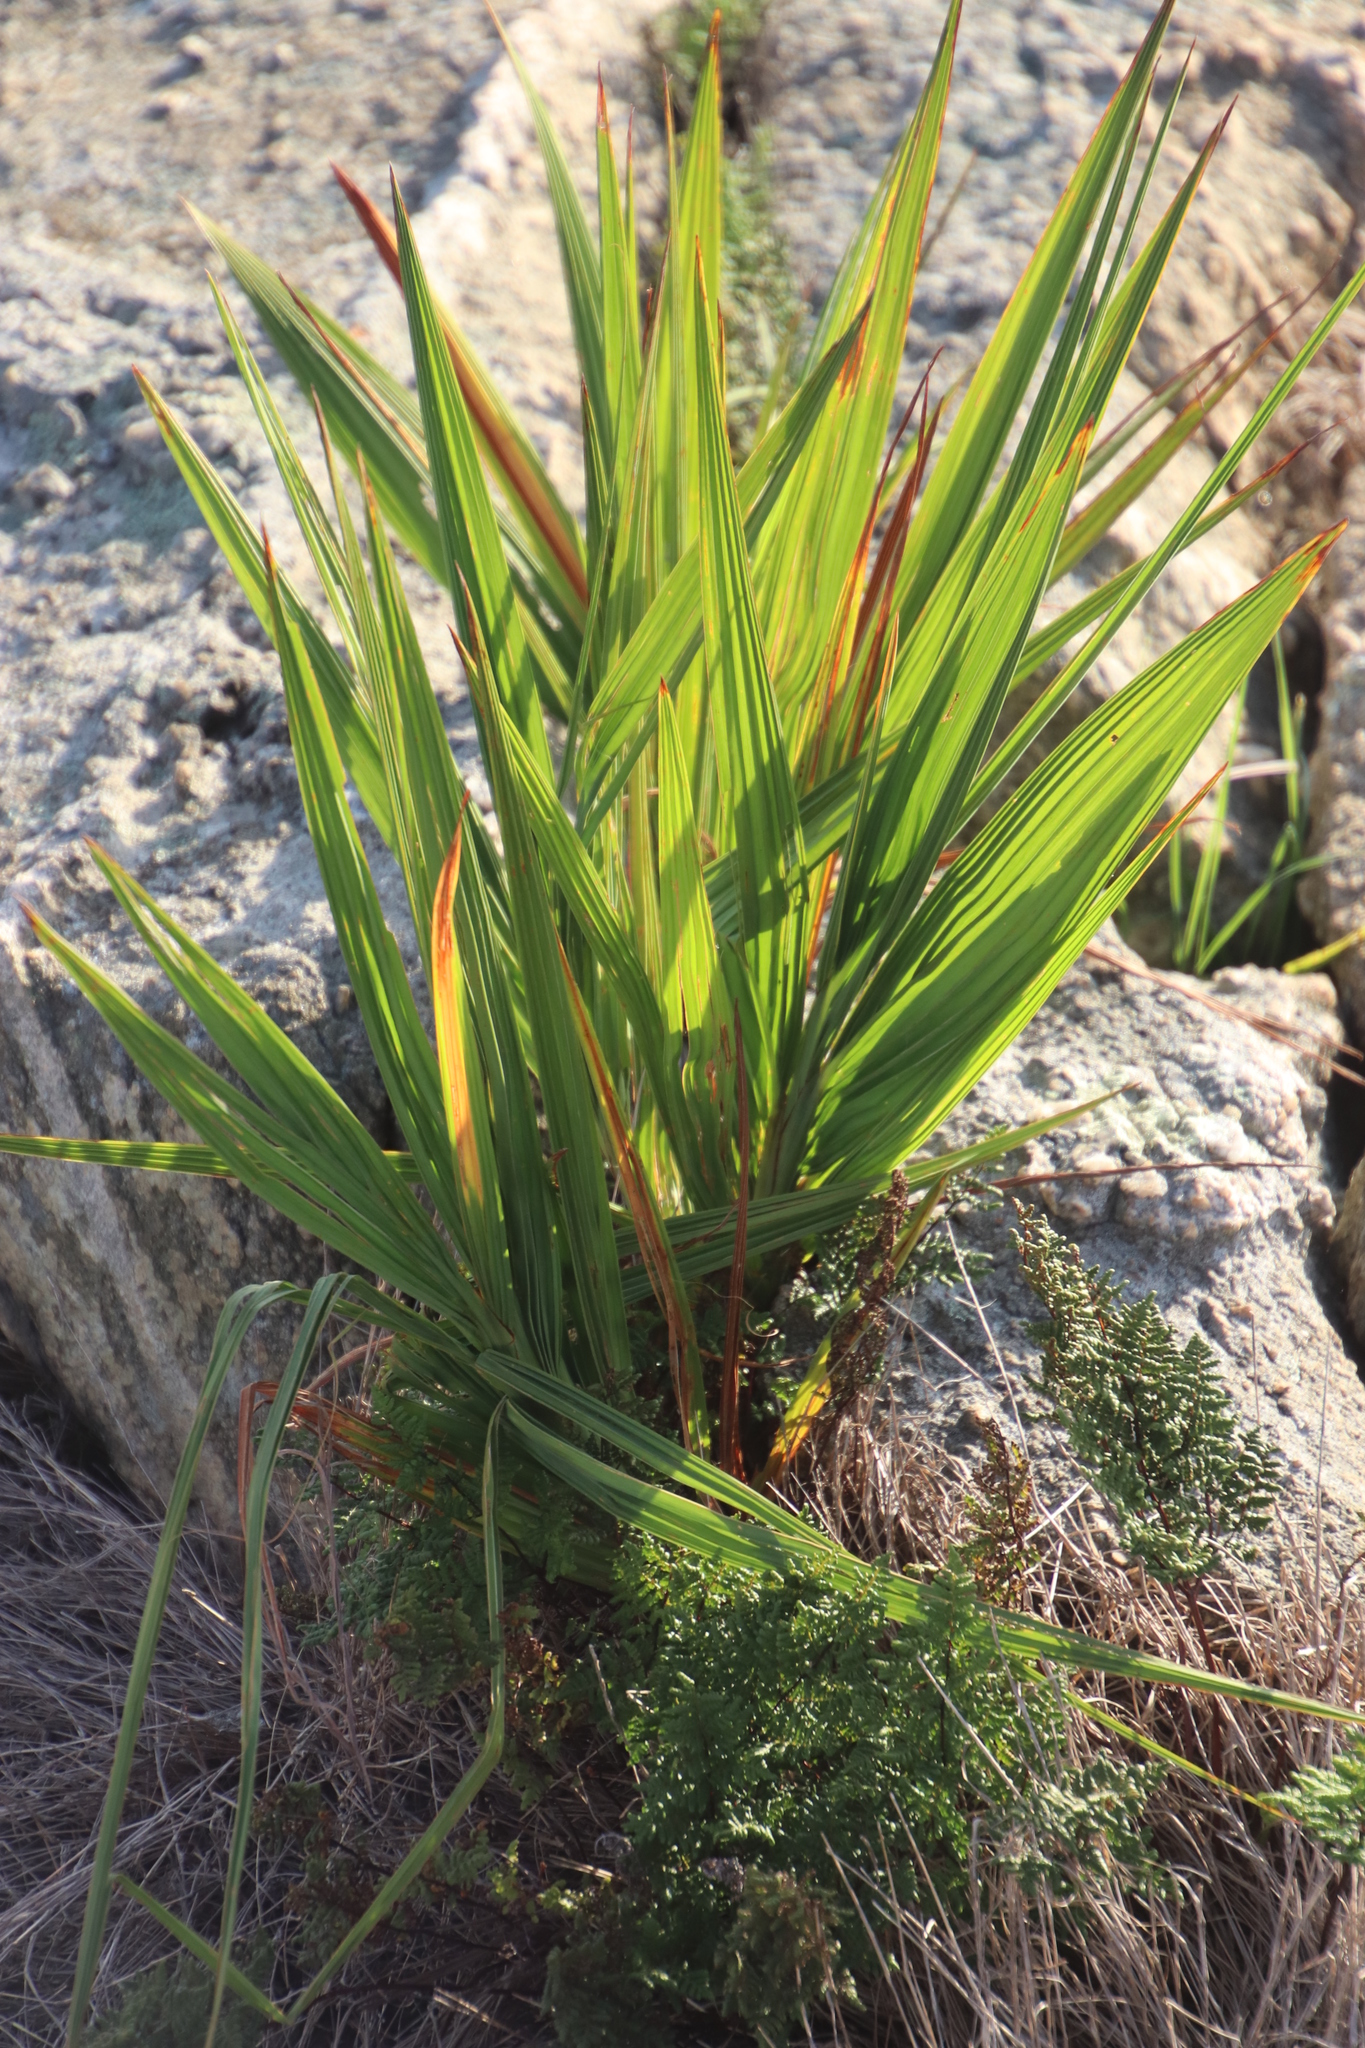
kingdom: Plantae
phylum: Tracheophyta
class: Liliopsida
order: Asparagales
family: Iridaceae
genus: Crocosmia
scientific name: Crocosmia paniculata
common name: Aunt eliza
